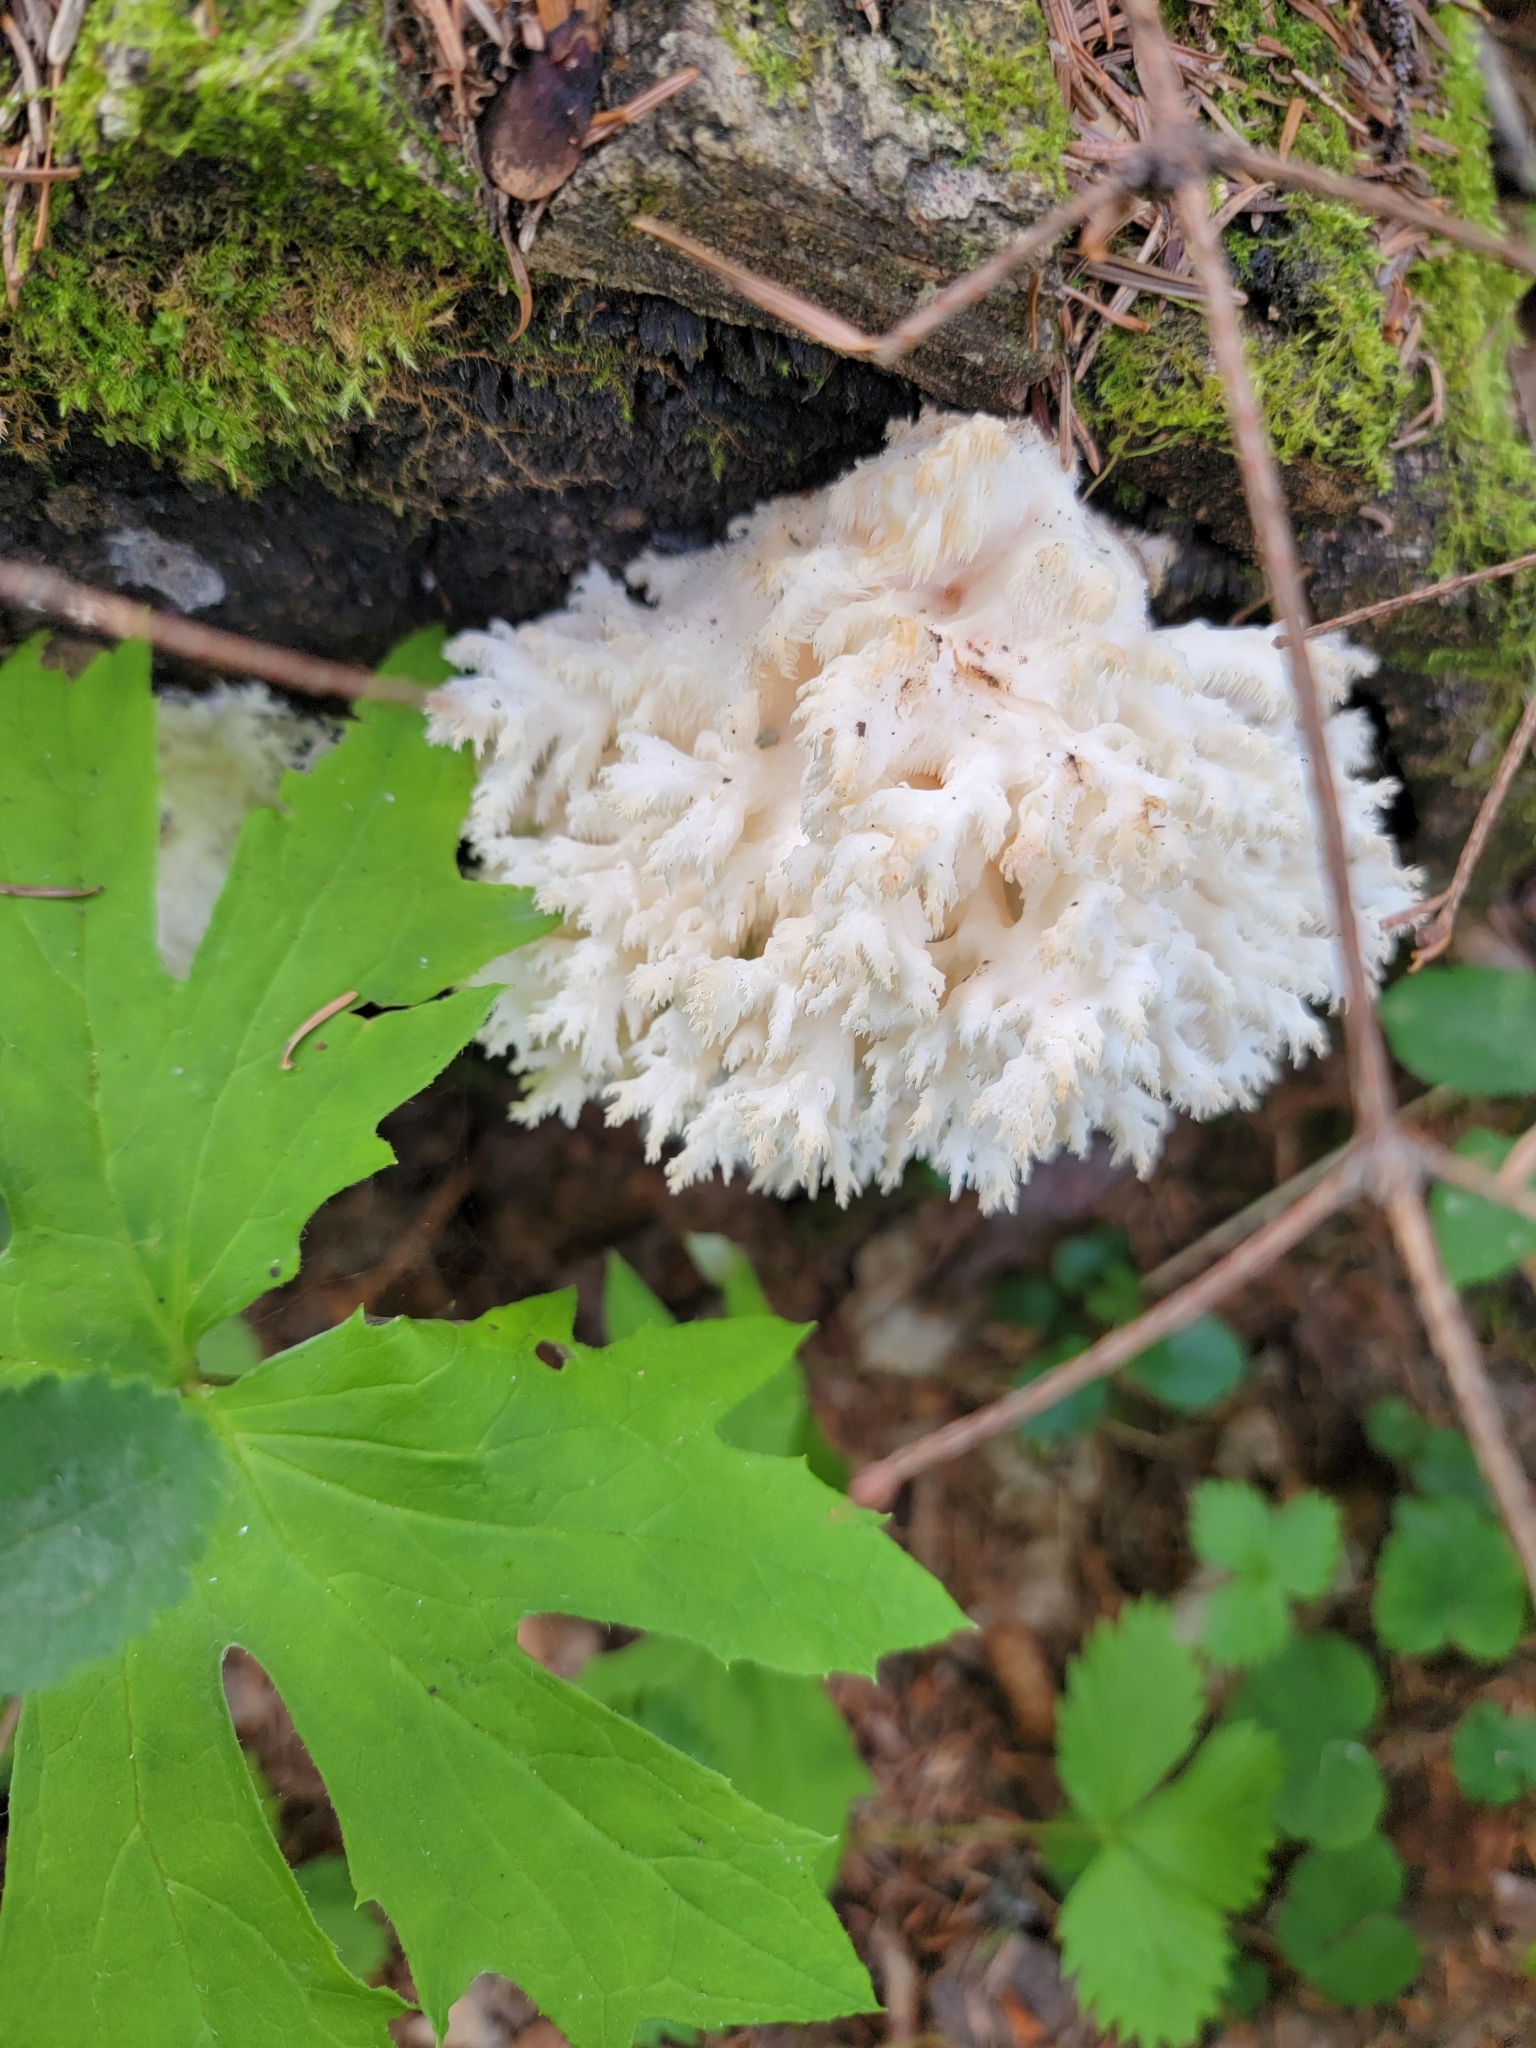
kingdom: Fungi
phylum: Basidiomycota
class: Agaricomycetes
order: Russulales
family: Hericiaceae
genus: Hericium
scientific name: Hericium coralloides
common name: Coral tooth
